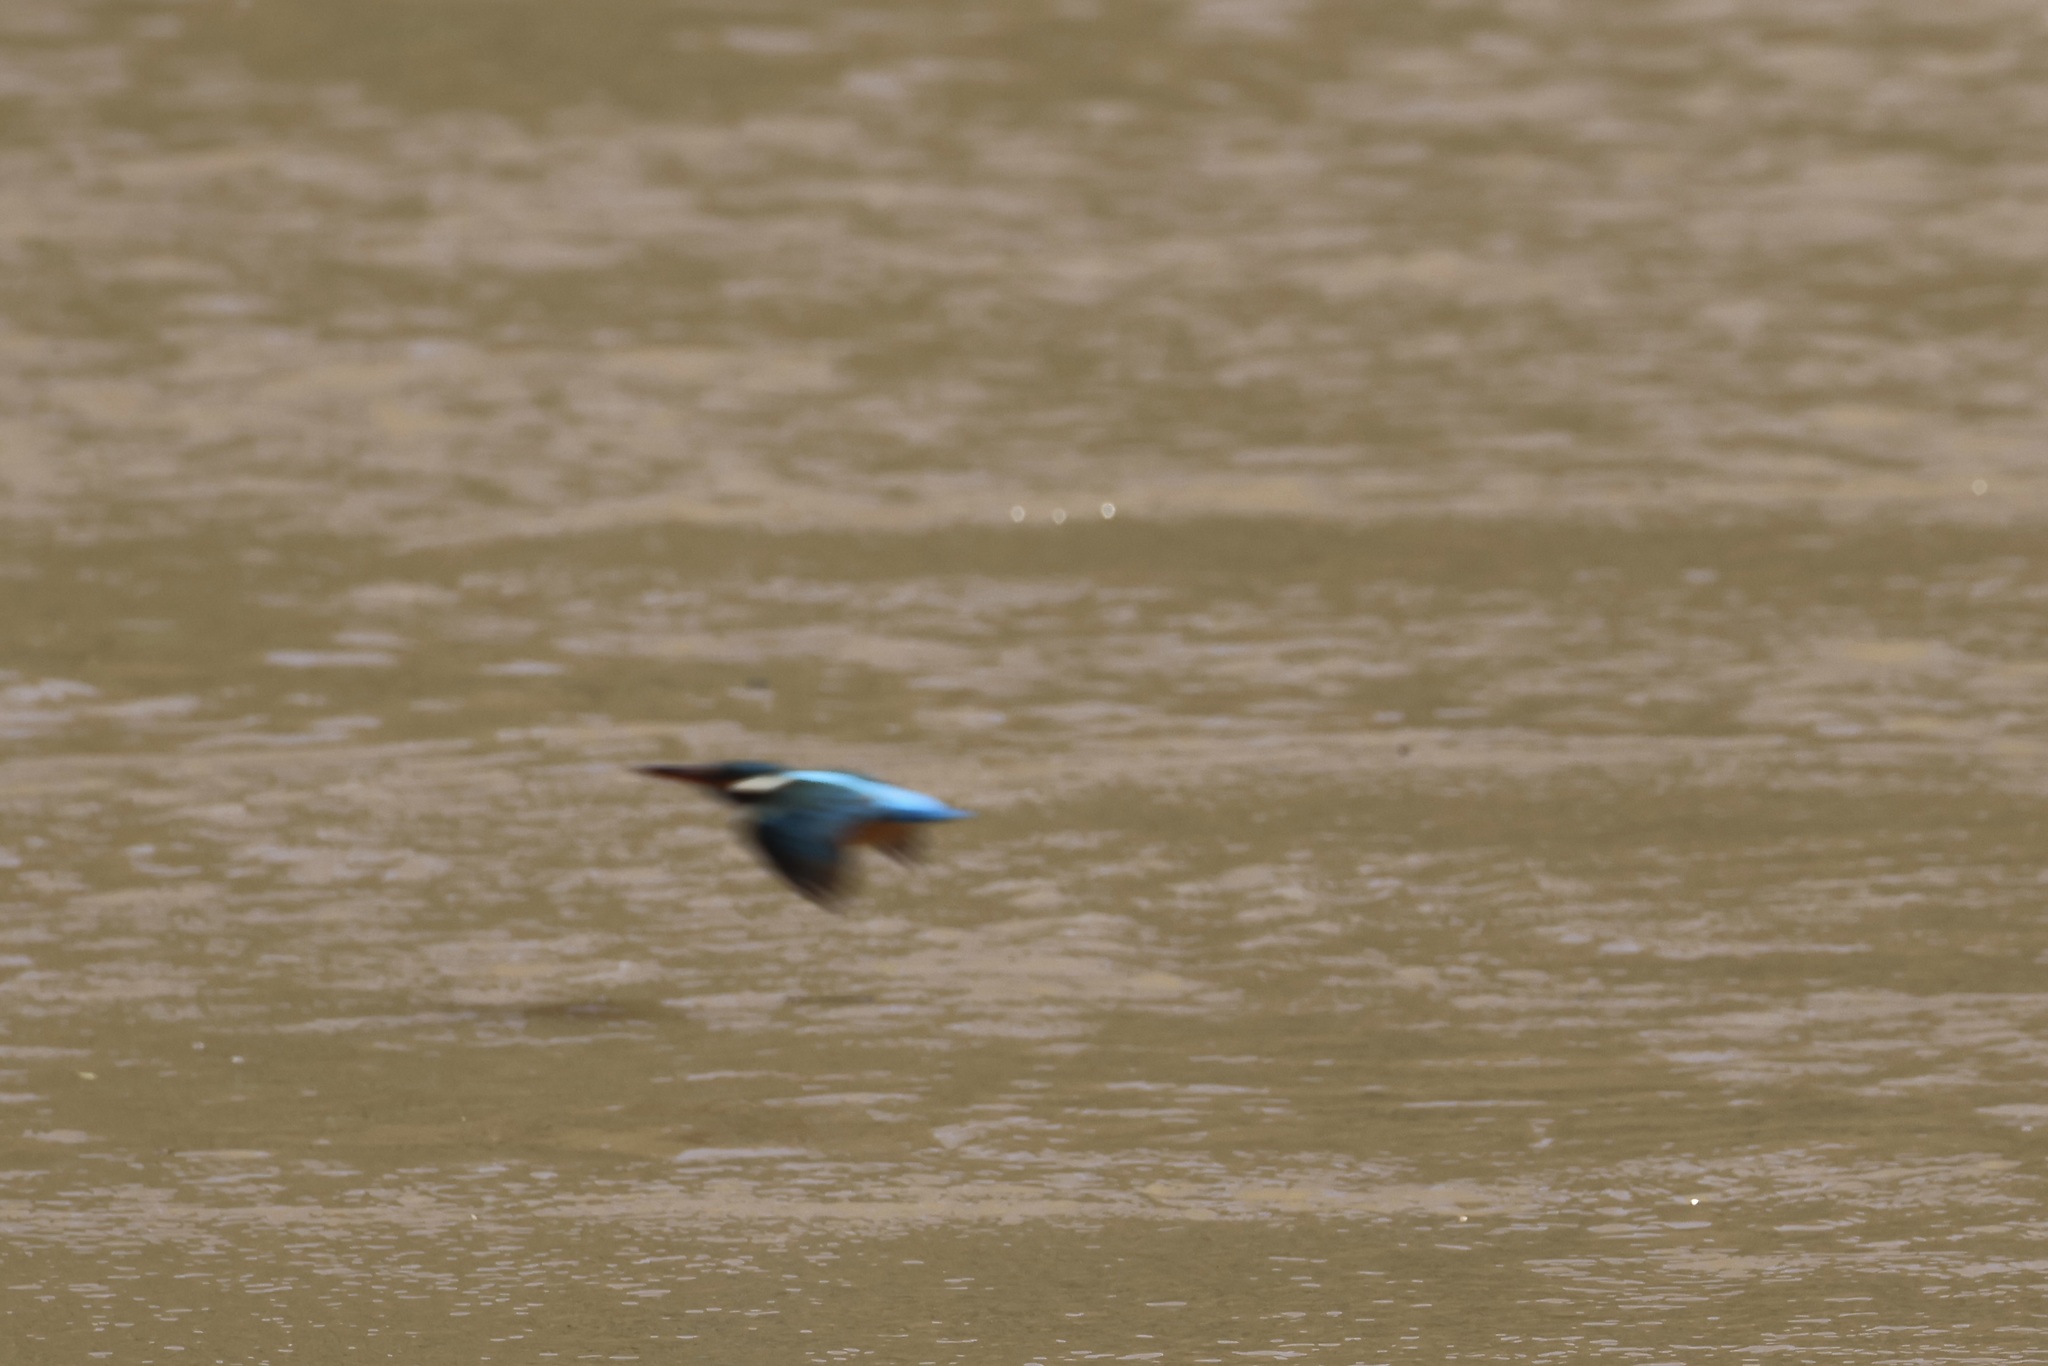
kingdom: Animalia
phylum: Chordata
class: Aves
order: Coraciiformes
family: Alcedinidae
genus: Alcedo
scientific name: Alcedo atthis
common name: Common kingfisher
